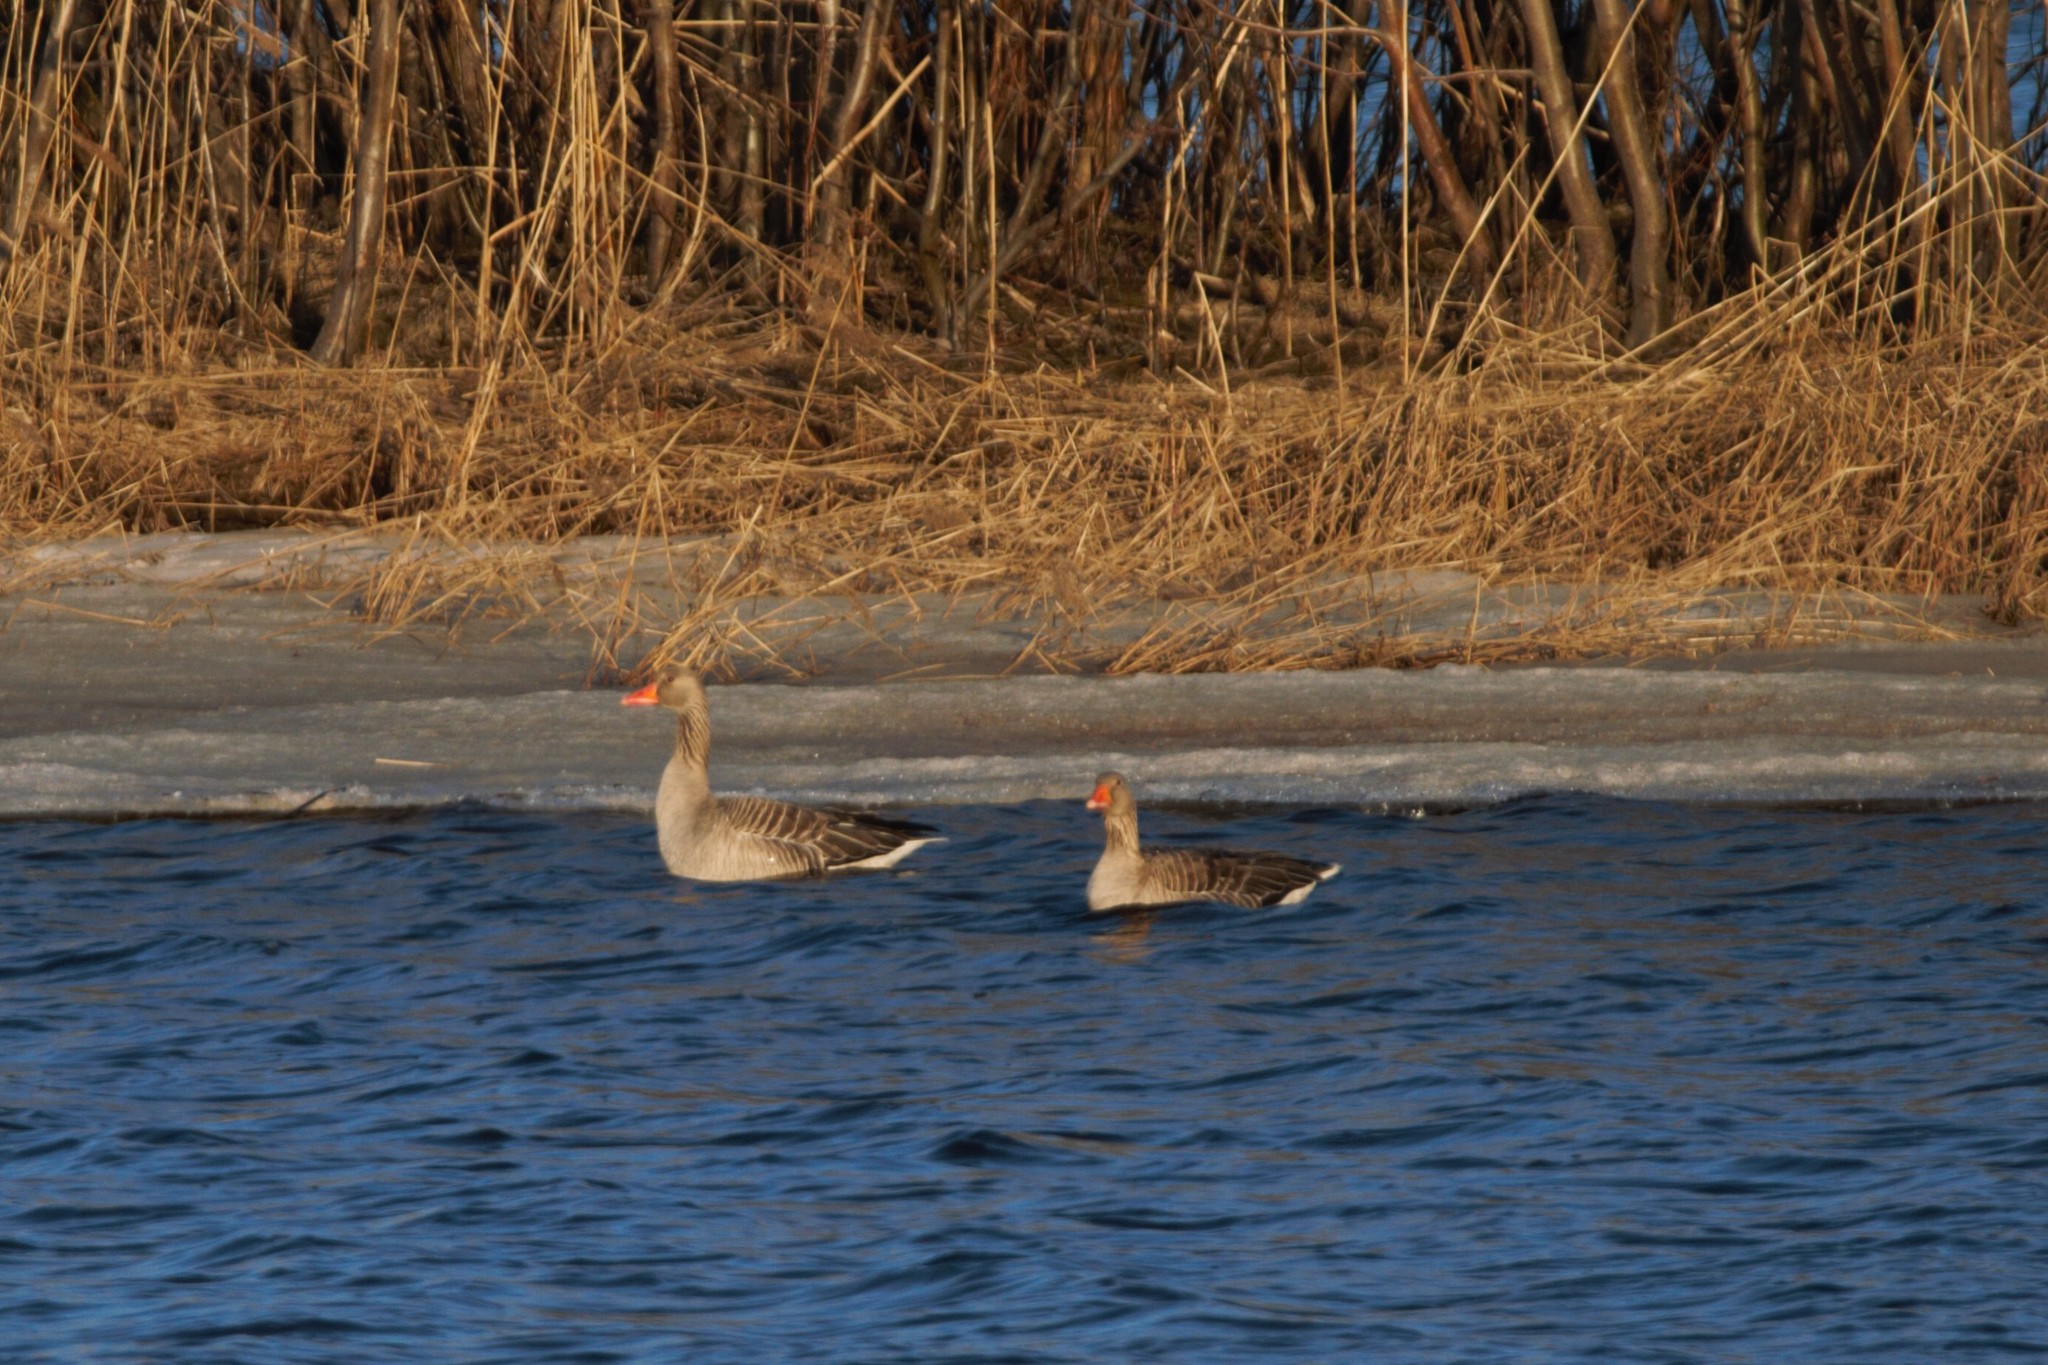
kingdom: Animalia
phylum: Chordata
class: Aves
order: Anseriformes
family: Anatidae
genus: Anser
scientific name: Anser anser
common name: Greylag goose
